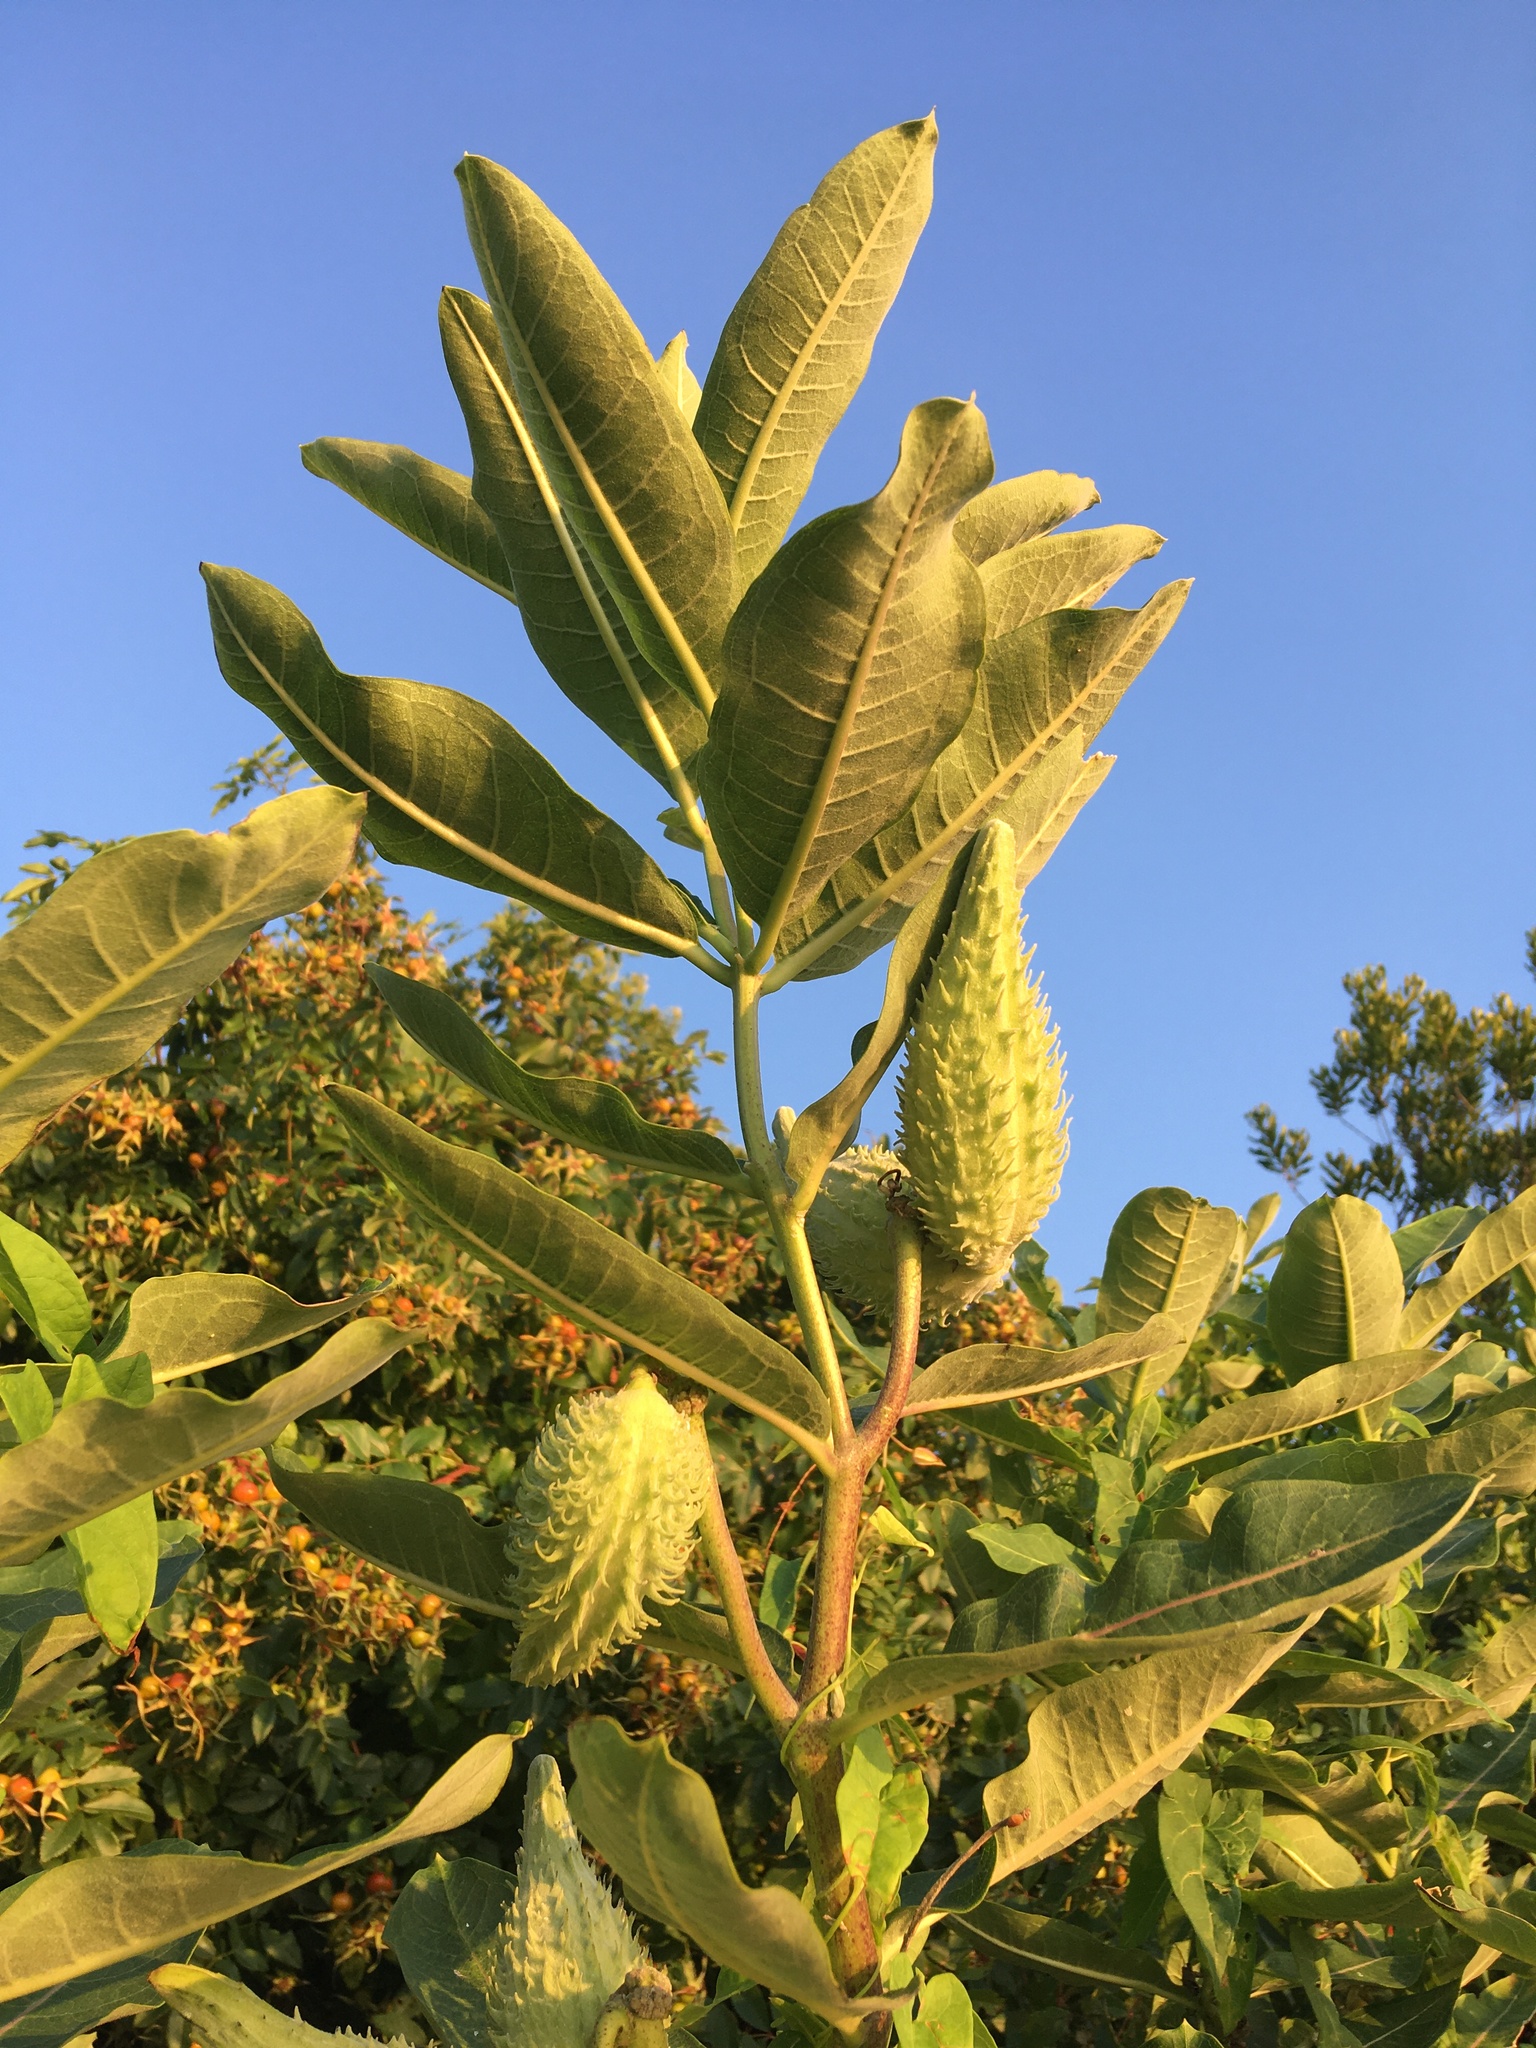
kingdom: Plantae
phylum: Tracheophyta
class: Magnoliopsida
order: Gentianales
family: Apocynaceae
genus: Asclepias
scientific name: Asclepias syriaca
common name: Common milkweed
